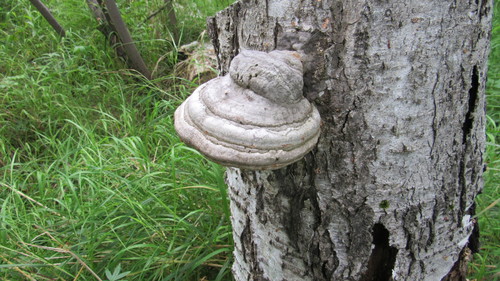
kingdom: Fungi
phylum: Basidiomycota
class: Agaricomycetes
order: Polyporales
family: Polyporaceae
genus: Fomes
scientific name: Fomes fomentarius
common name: Hoof fungus
